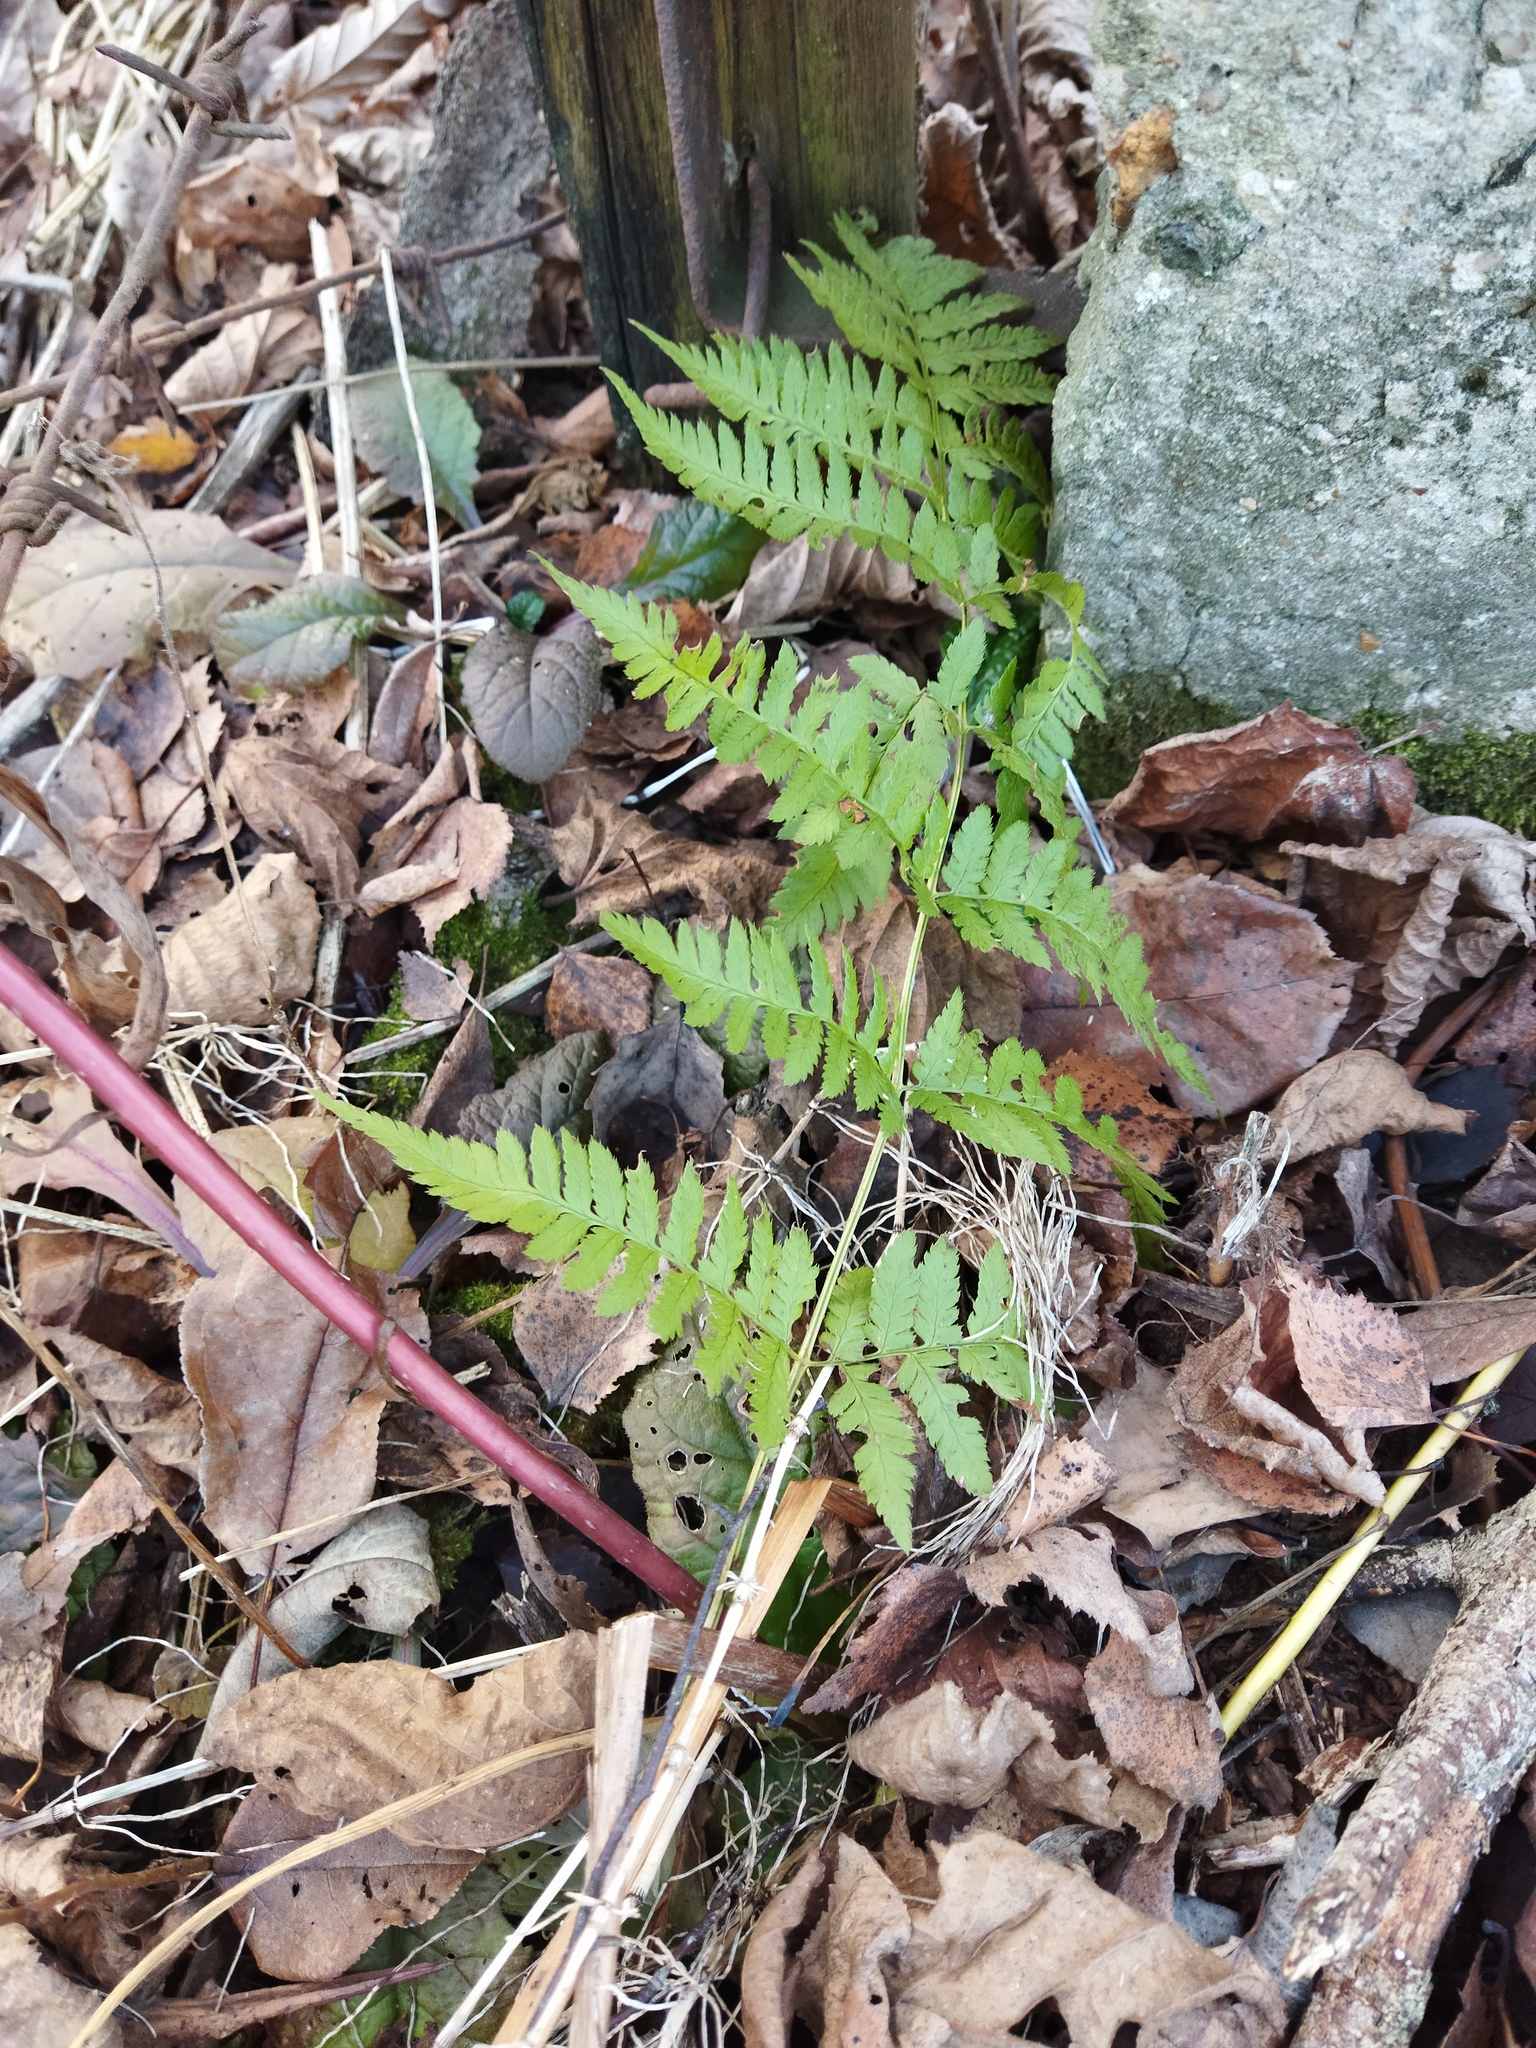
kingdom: Plantae
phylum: Tracheophyta
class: Polypodiopsida
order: Polypodiales
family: Dryopteridaceae
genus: Dryopteris
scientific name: Dryopteris carthusiana
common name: Narrow buckler-fern
